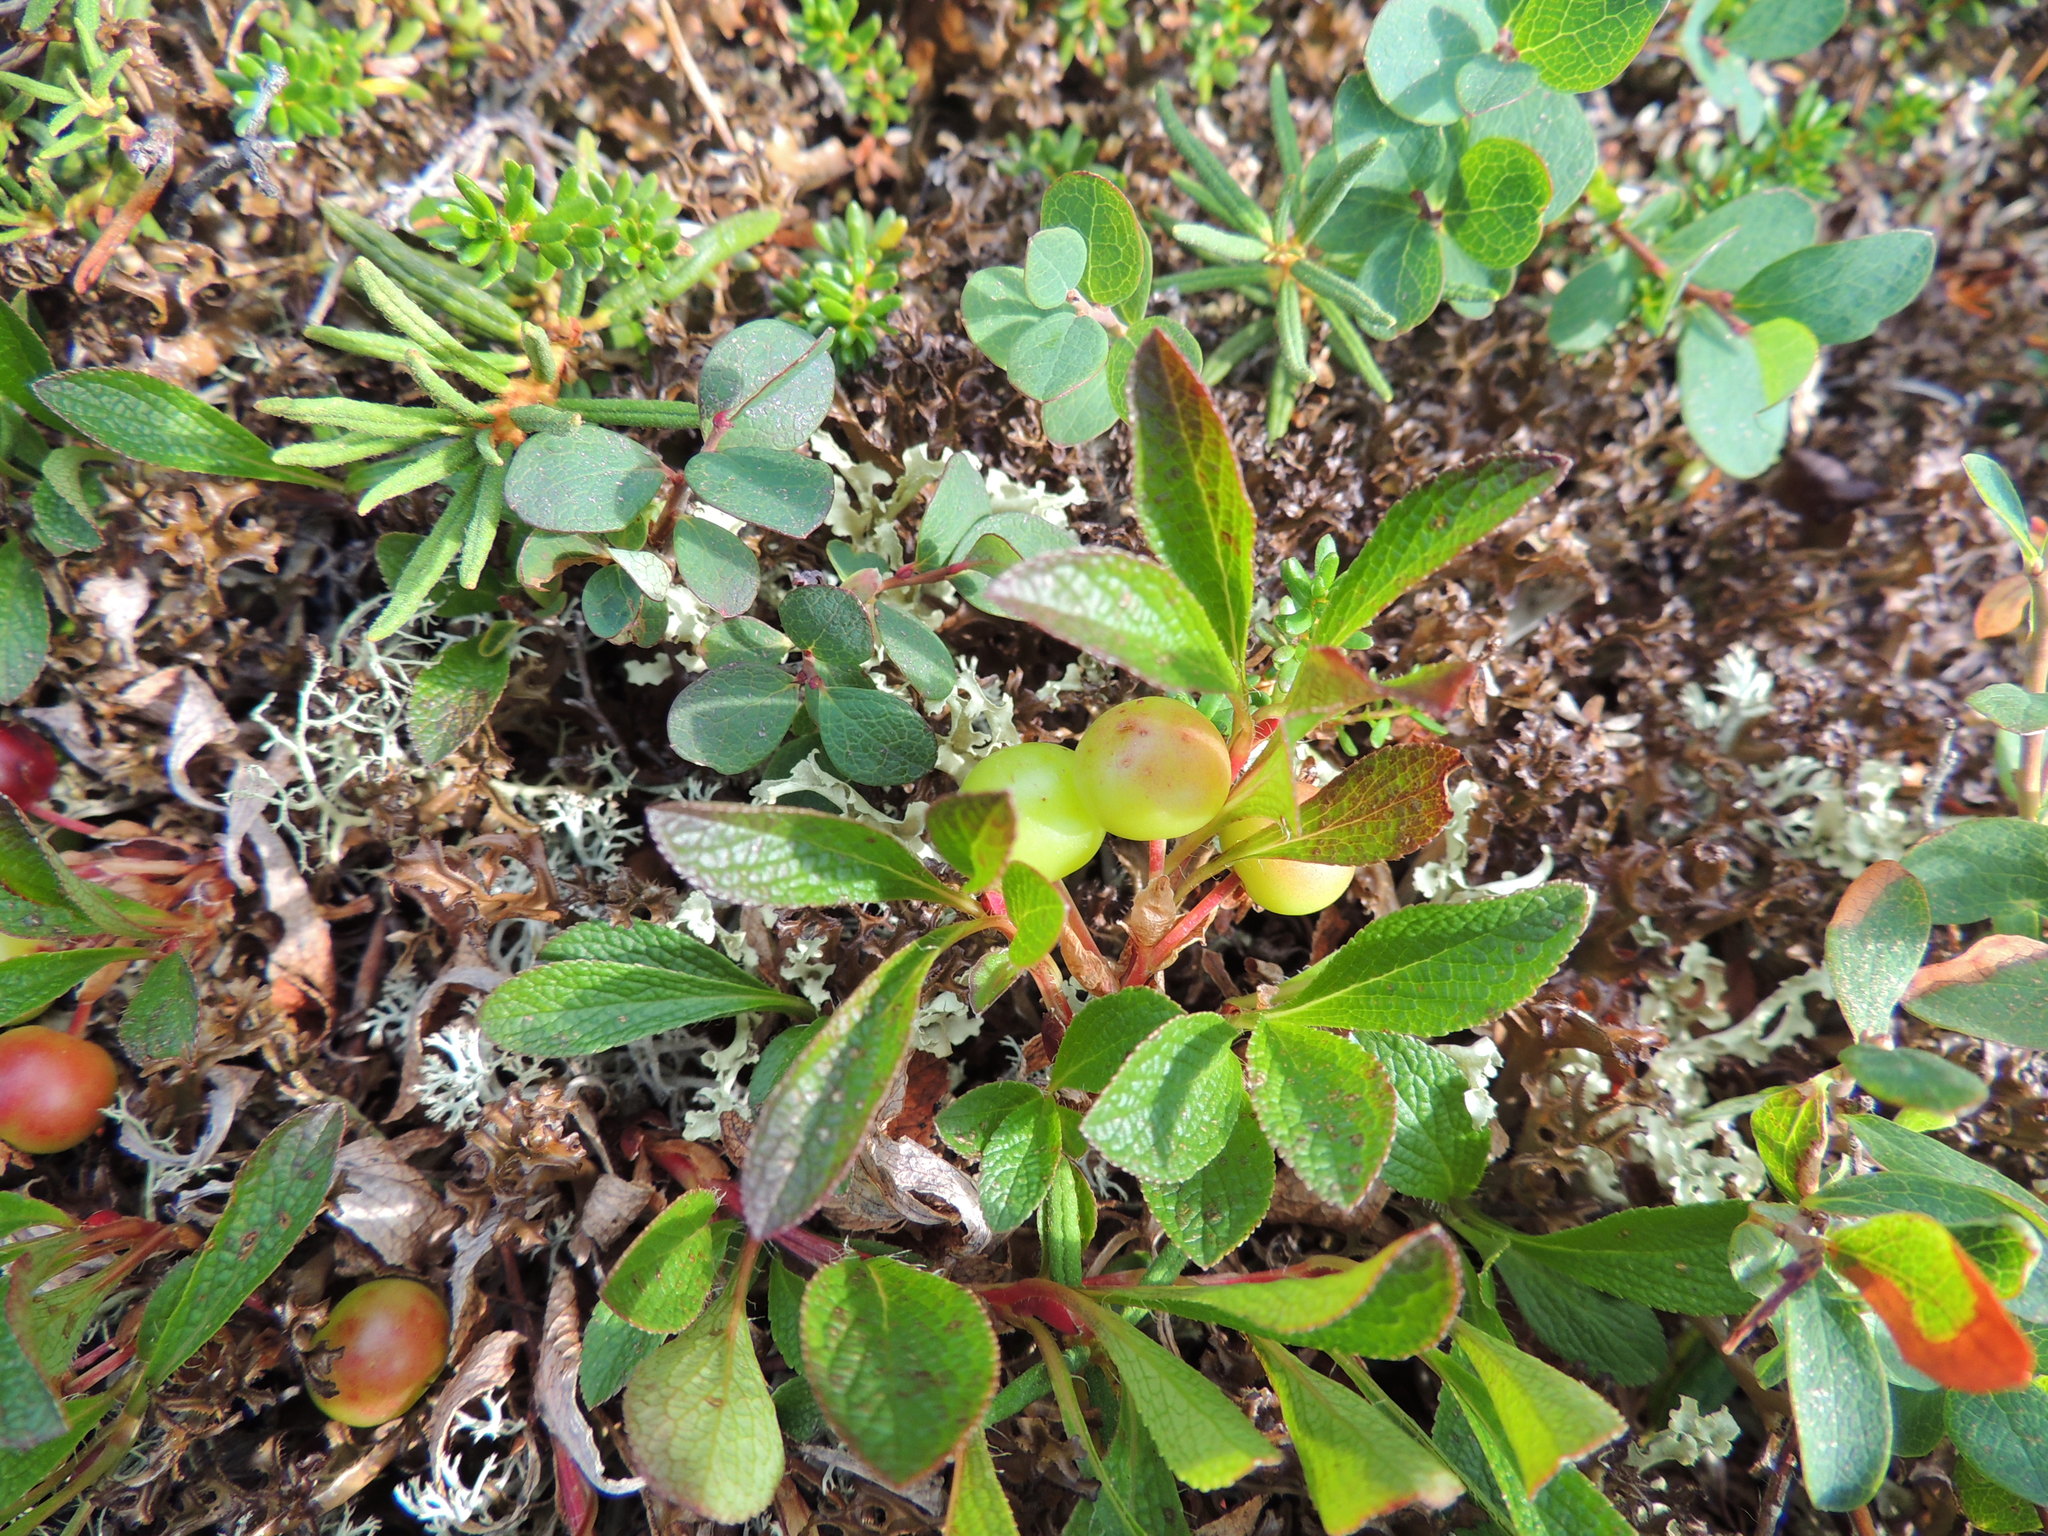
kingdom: Plantae
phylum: Tracheophyta
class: Magnoliopsida
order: Ericales
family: Ericaceae
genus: Arctostaphylos
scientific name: Arctostaphylos alpinus
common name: Alpine bearberry
